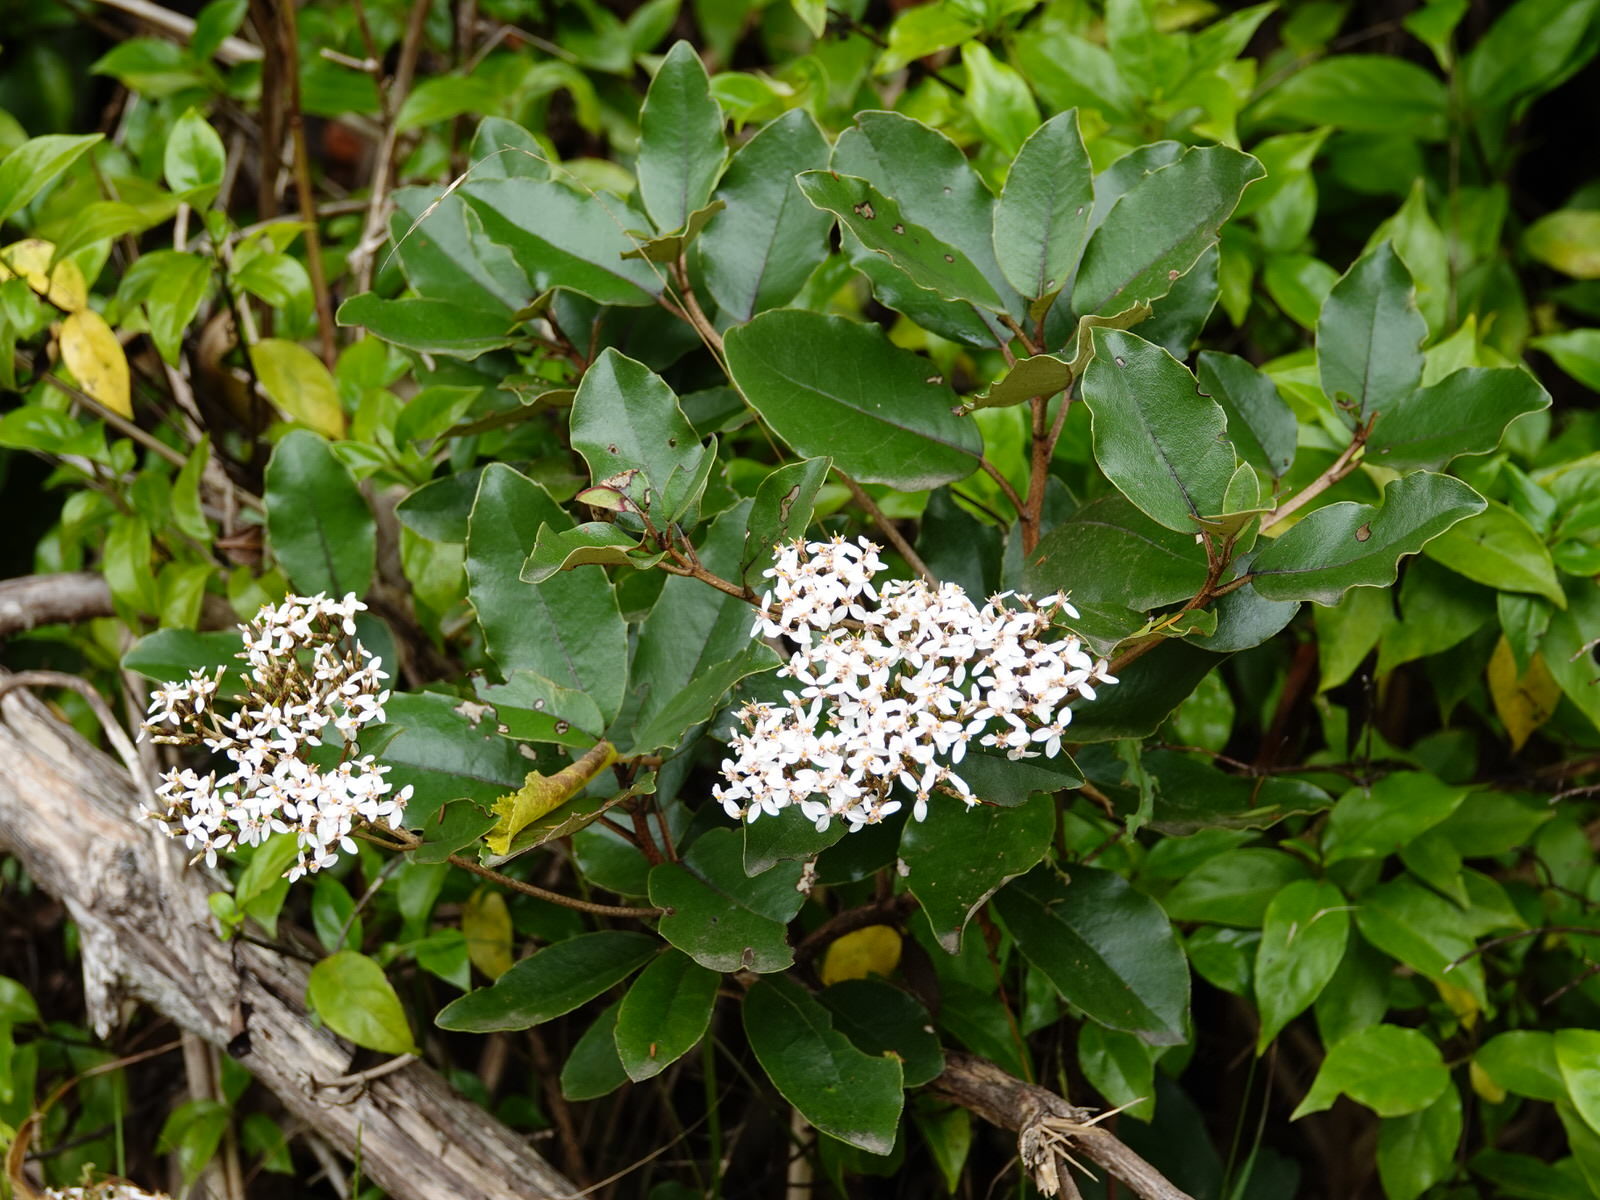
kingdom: Plantae
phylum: Tracheophyta
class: Magnoliopsida
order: Asterales
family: Asteraceae
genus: Olearia
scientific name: Olearia furfuracea
